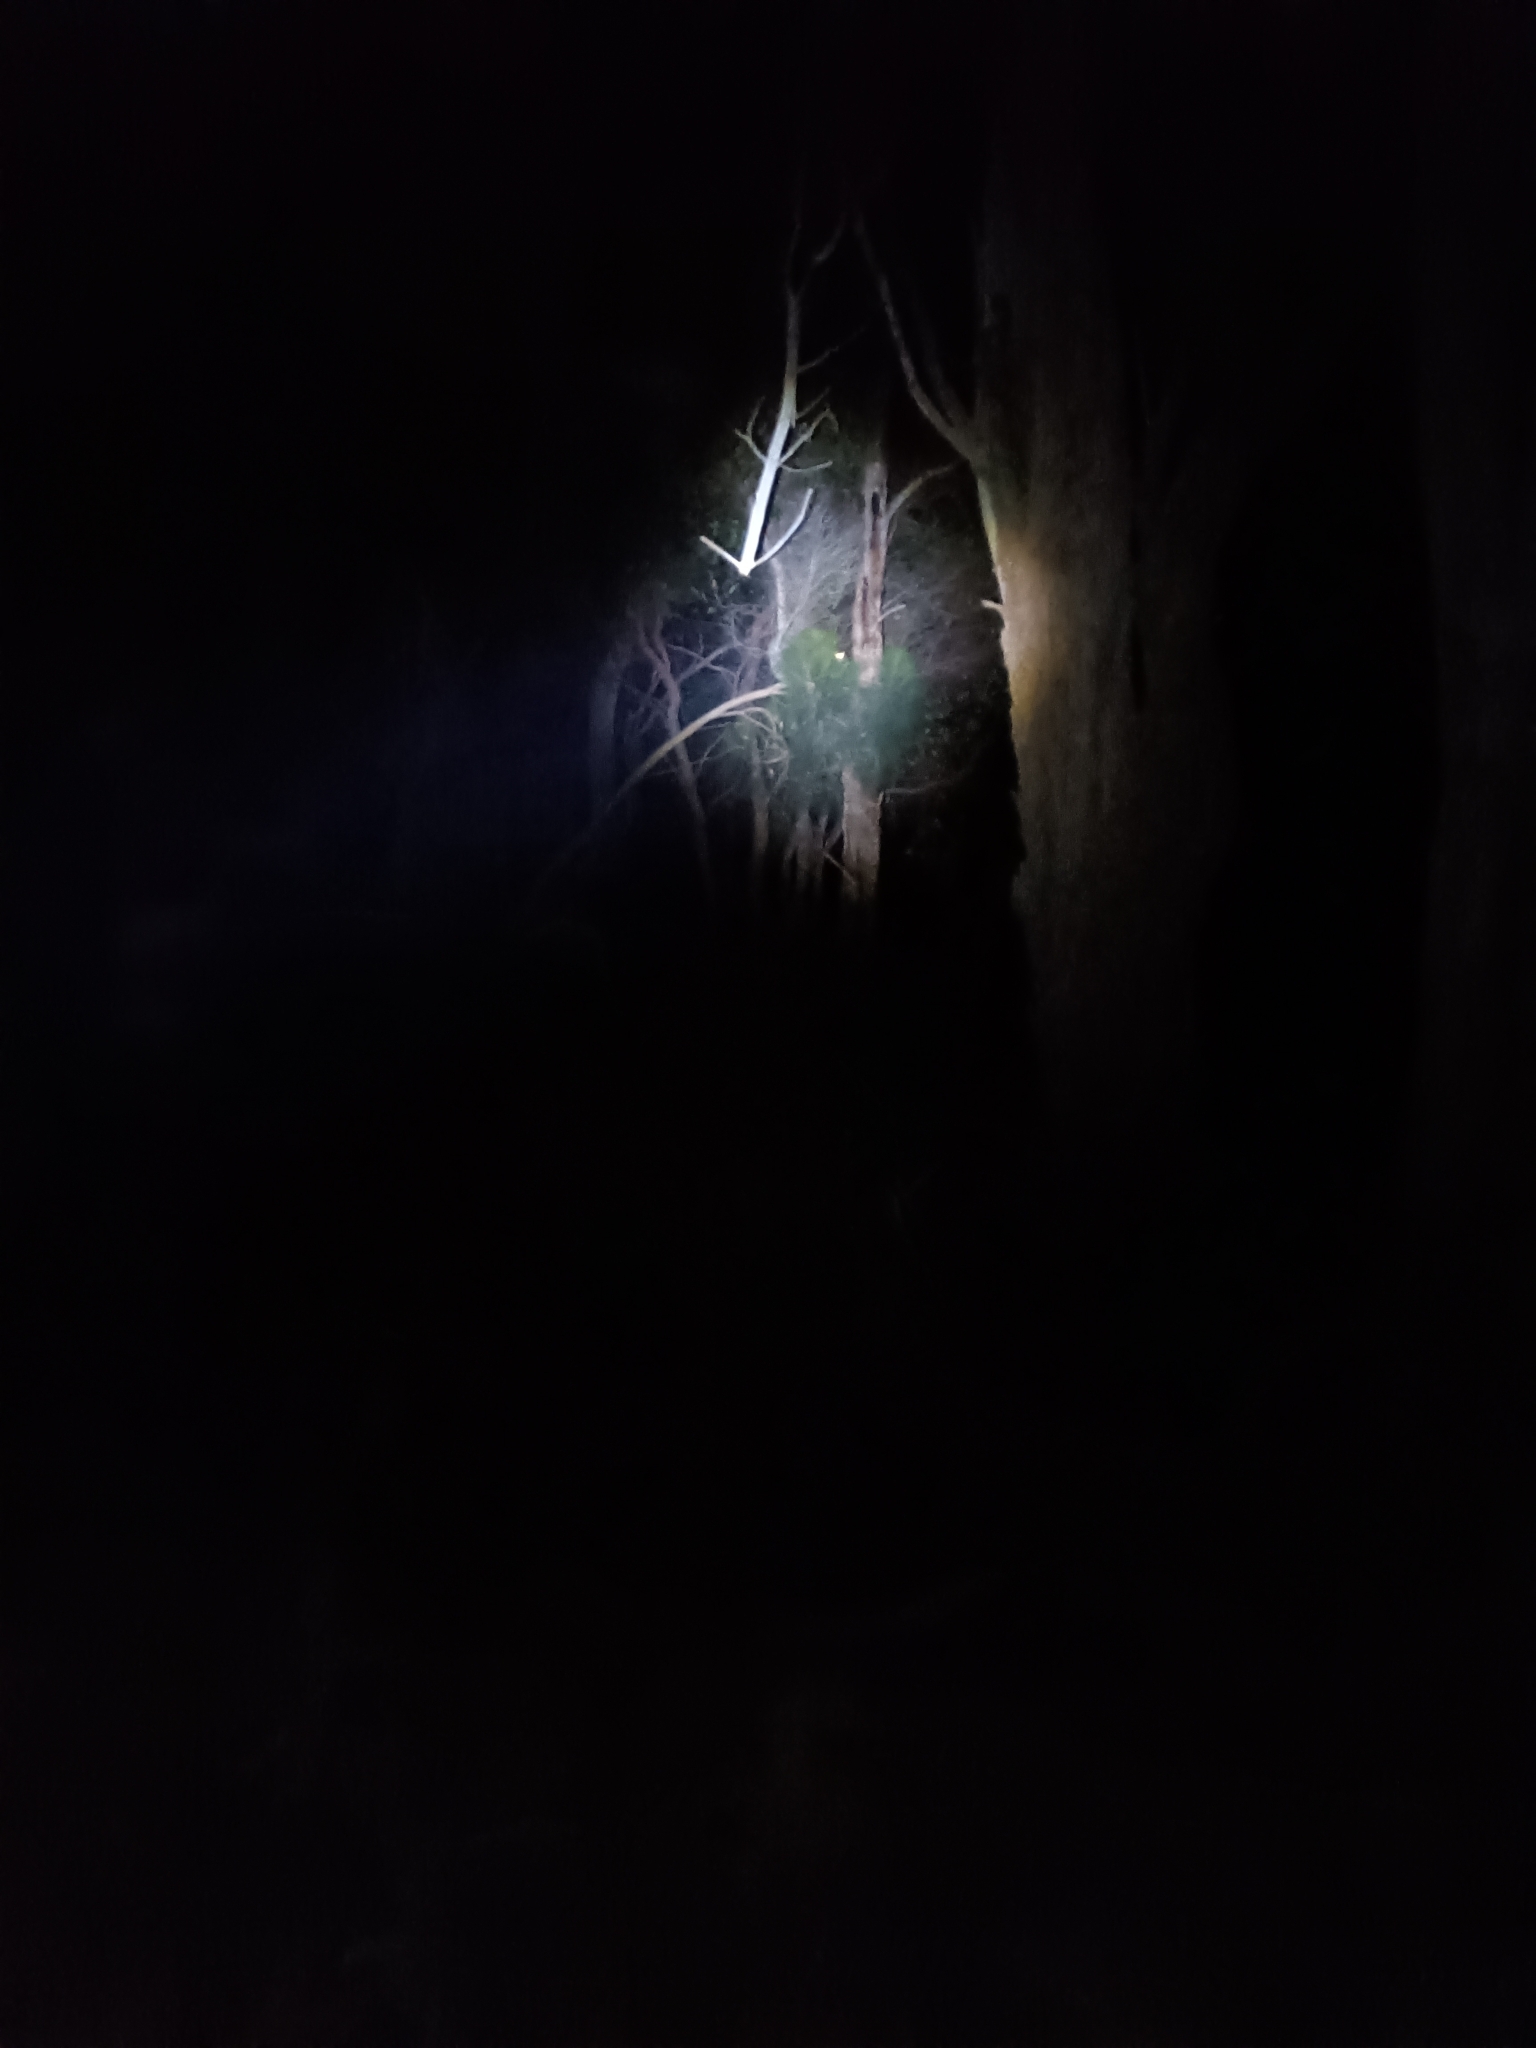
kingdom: Animalia
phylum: Chordata
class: Mammalia
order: Diprotodontia
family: Pseudocheiridae
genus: Pseudocheirus
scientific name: Pseudocheirus peregrinus
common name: Common ringtail possum
